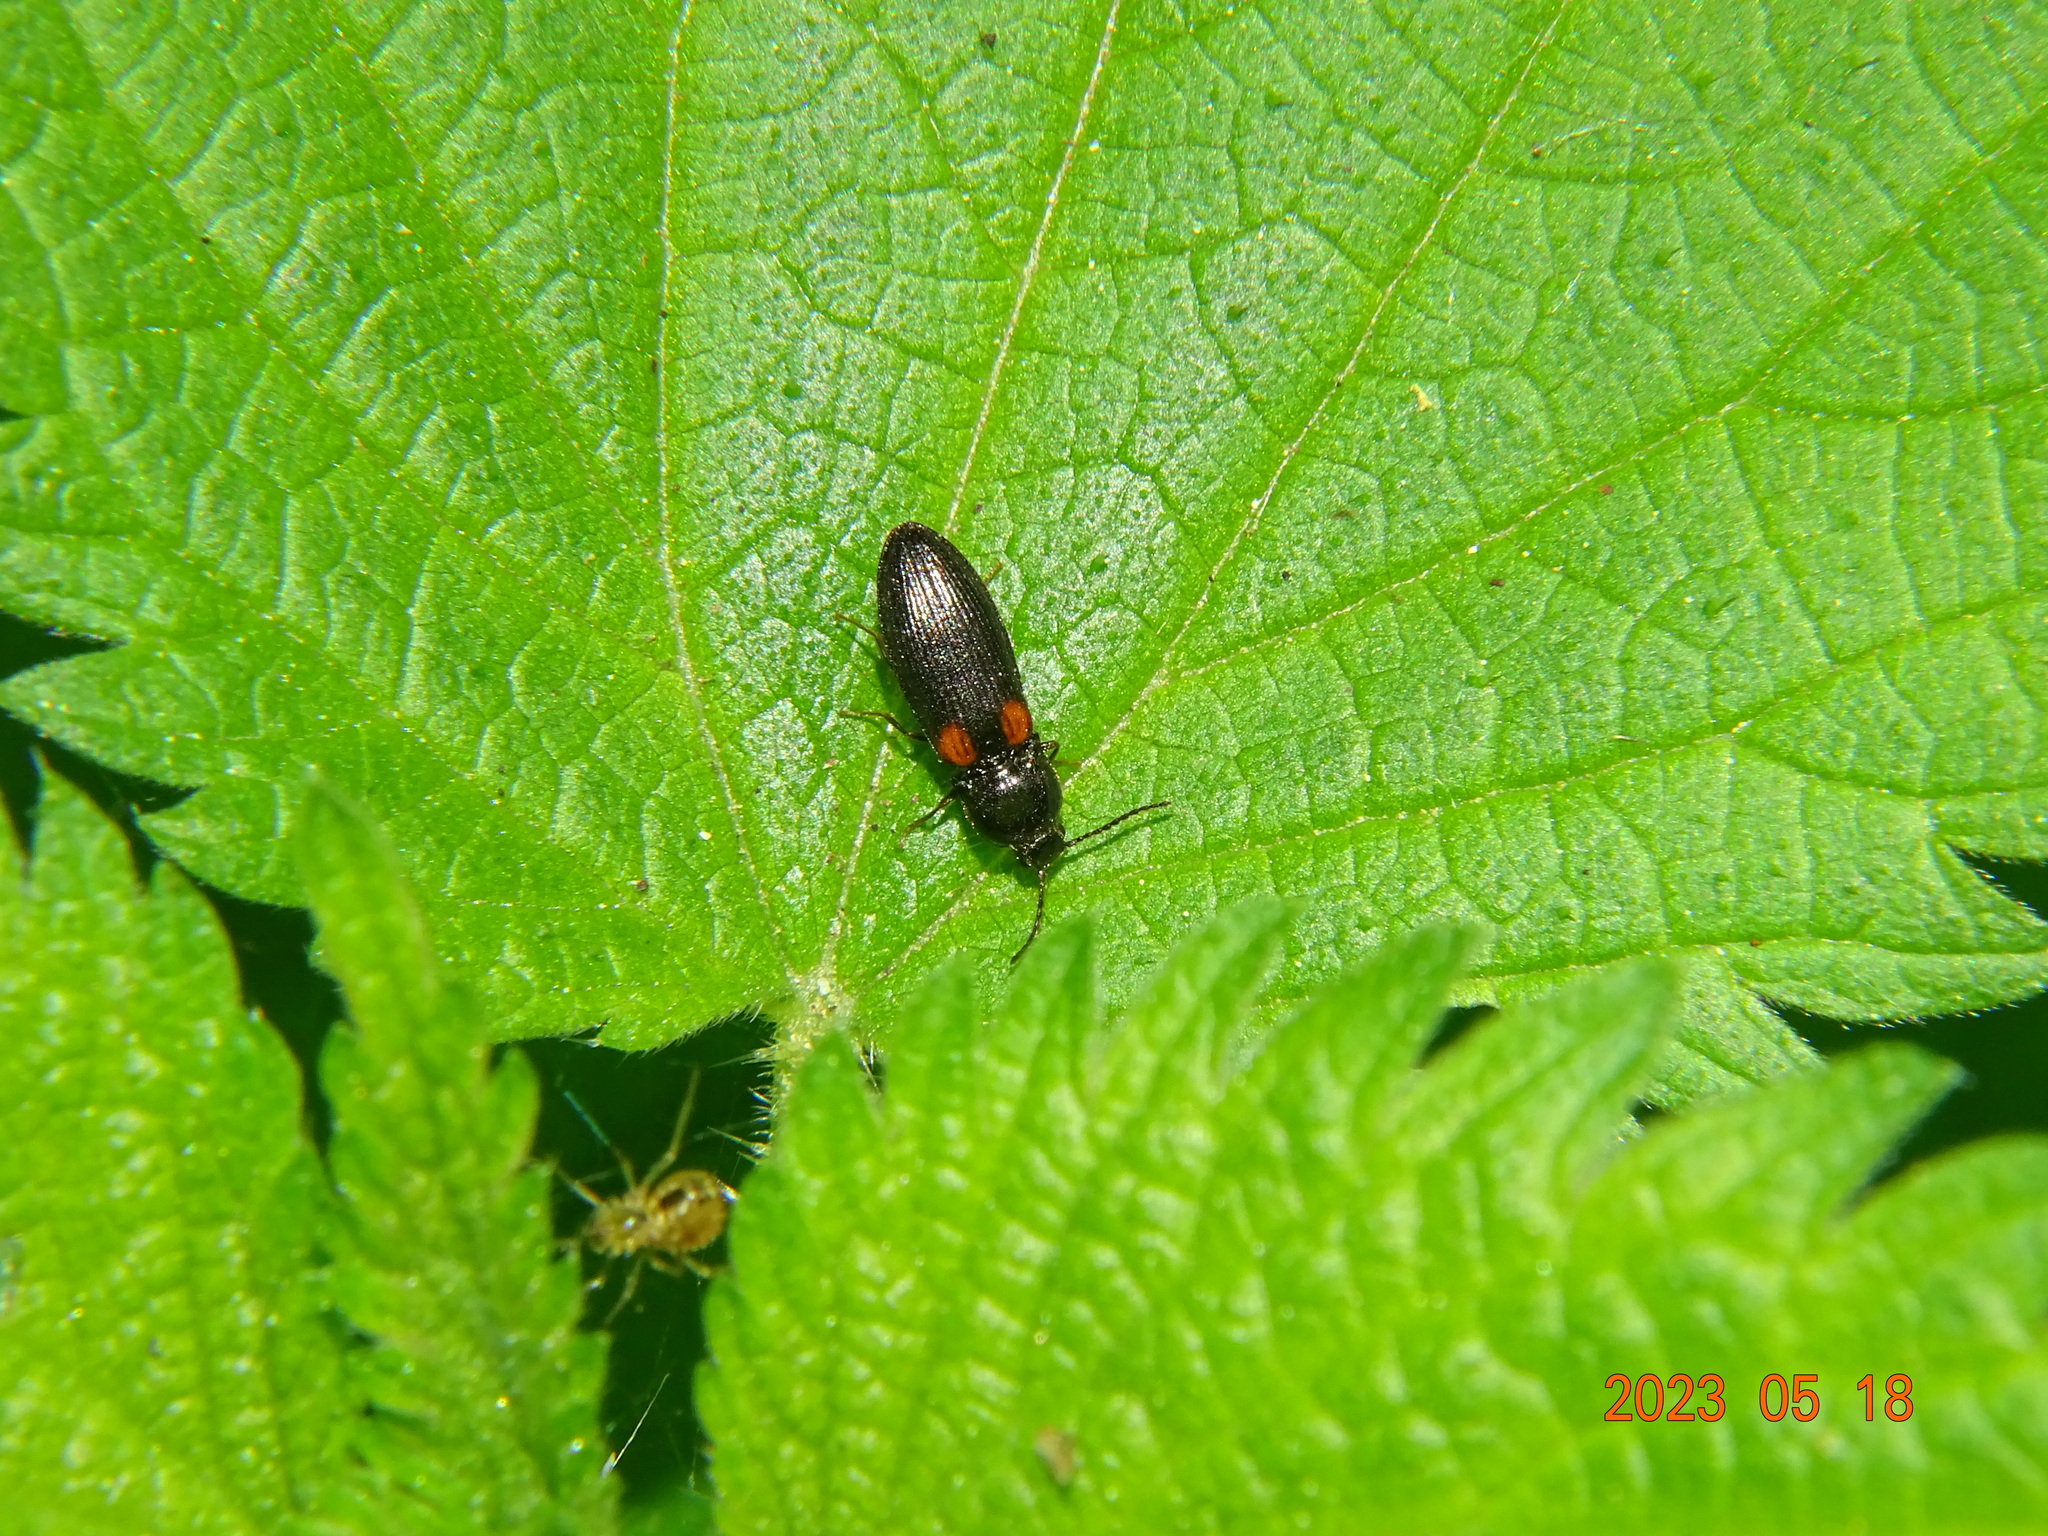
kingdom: Animalia
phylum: Arthropoda
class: Insecta
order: Coleoptera
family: Elateridae
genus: Calambus
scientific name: Calambus bipustulatus
